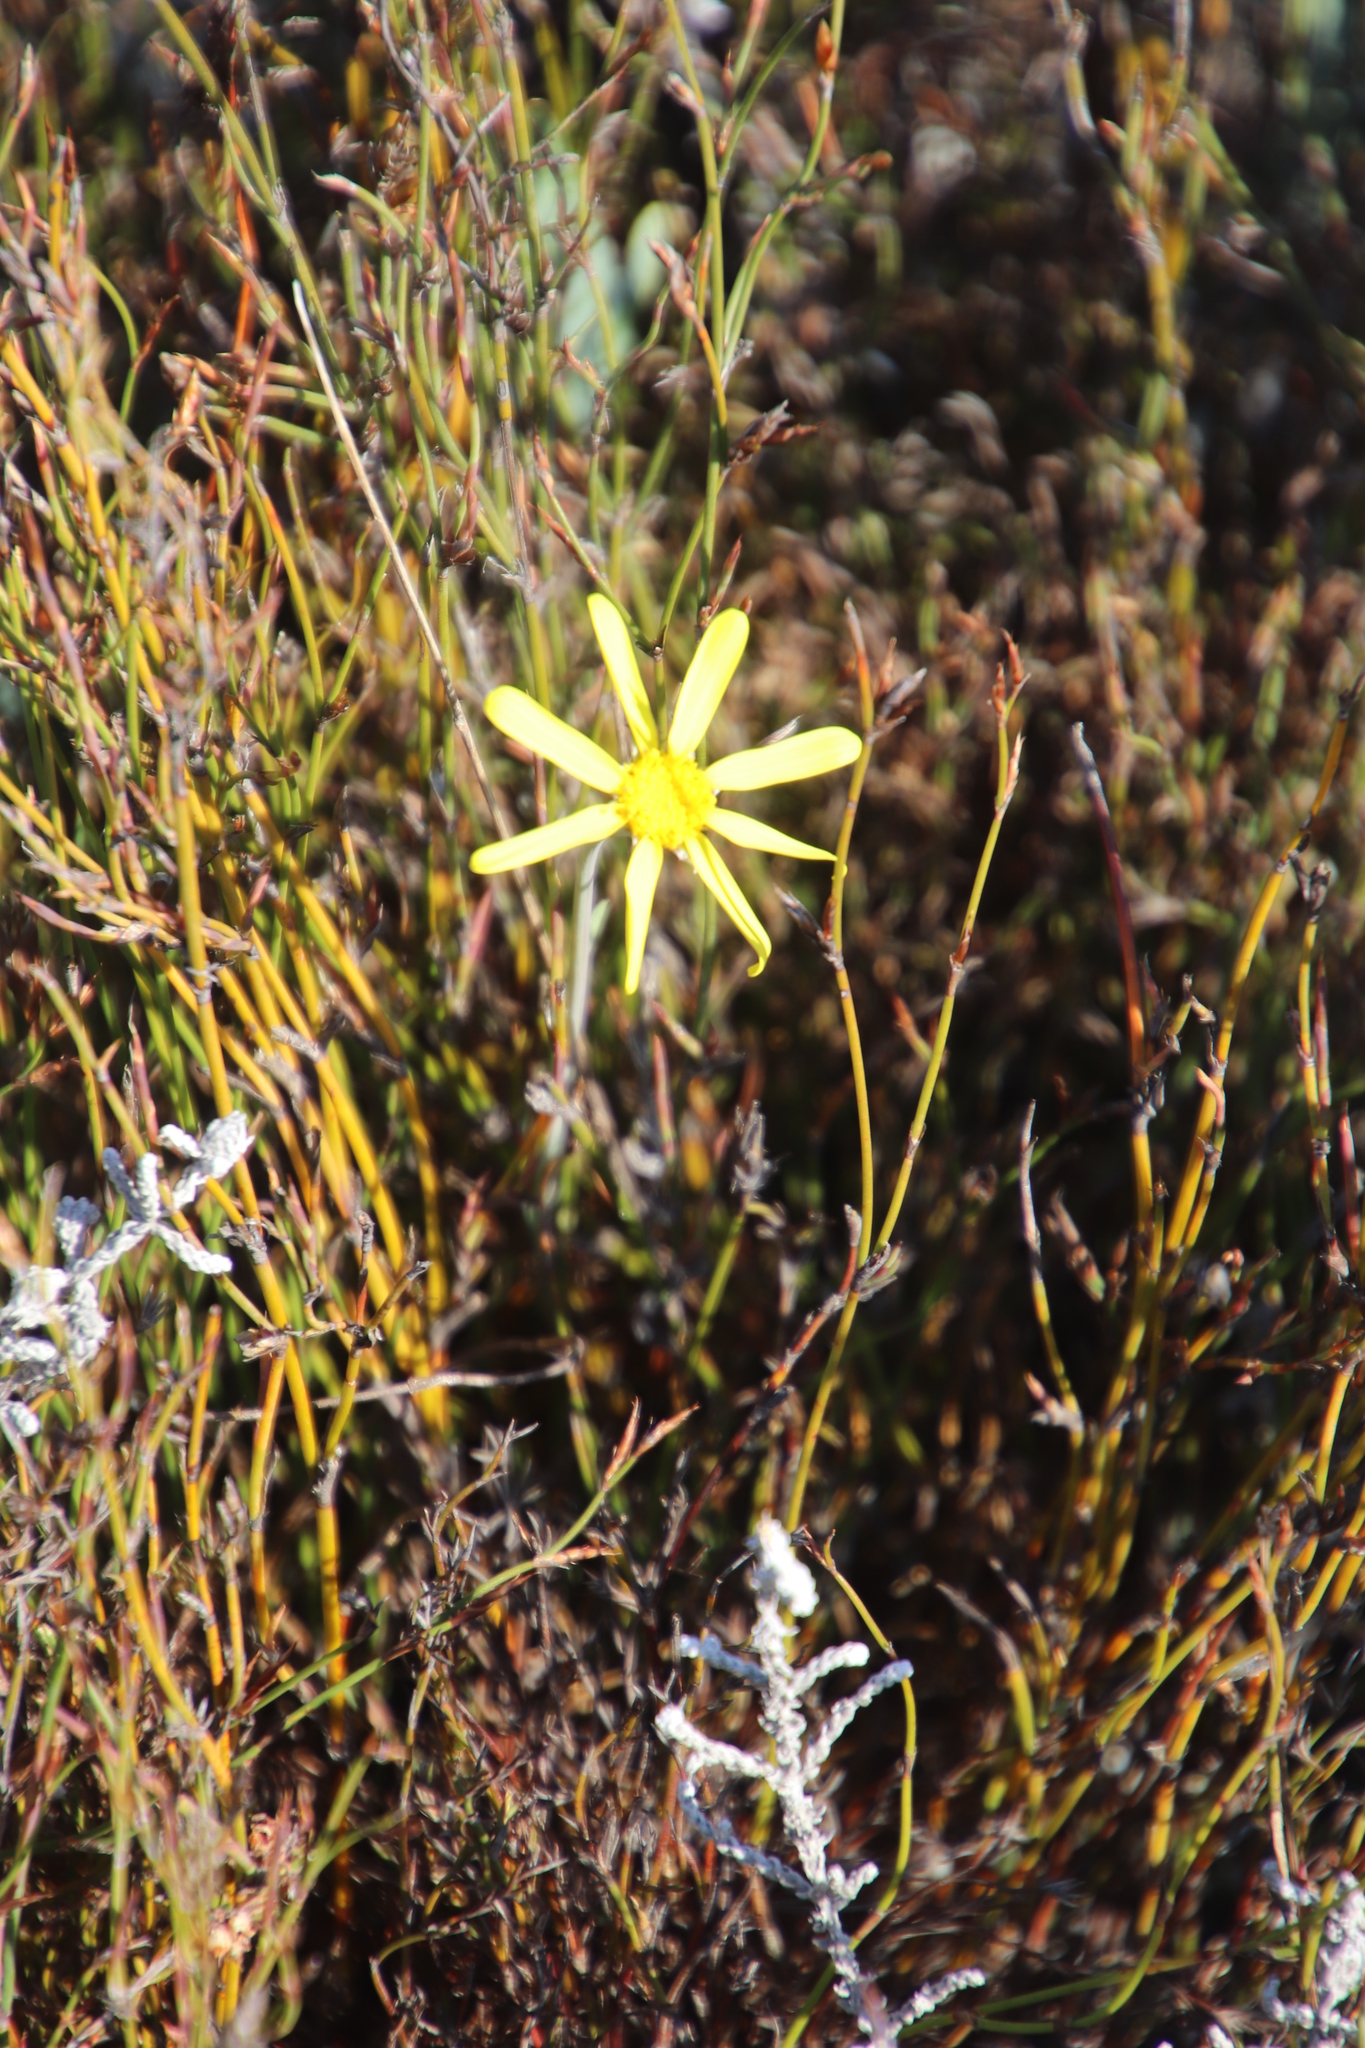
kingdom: Plantae
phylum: Tracheophyta
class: Magnoliopsida
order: Asterales
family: Asteraceae
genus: Othonna
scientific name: Othonna pinnata
